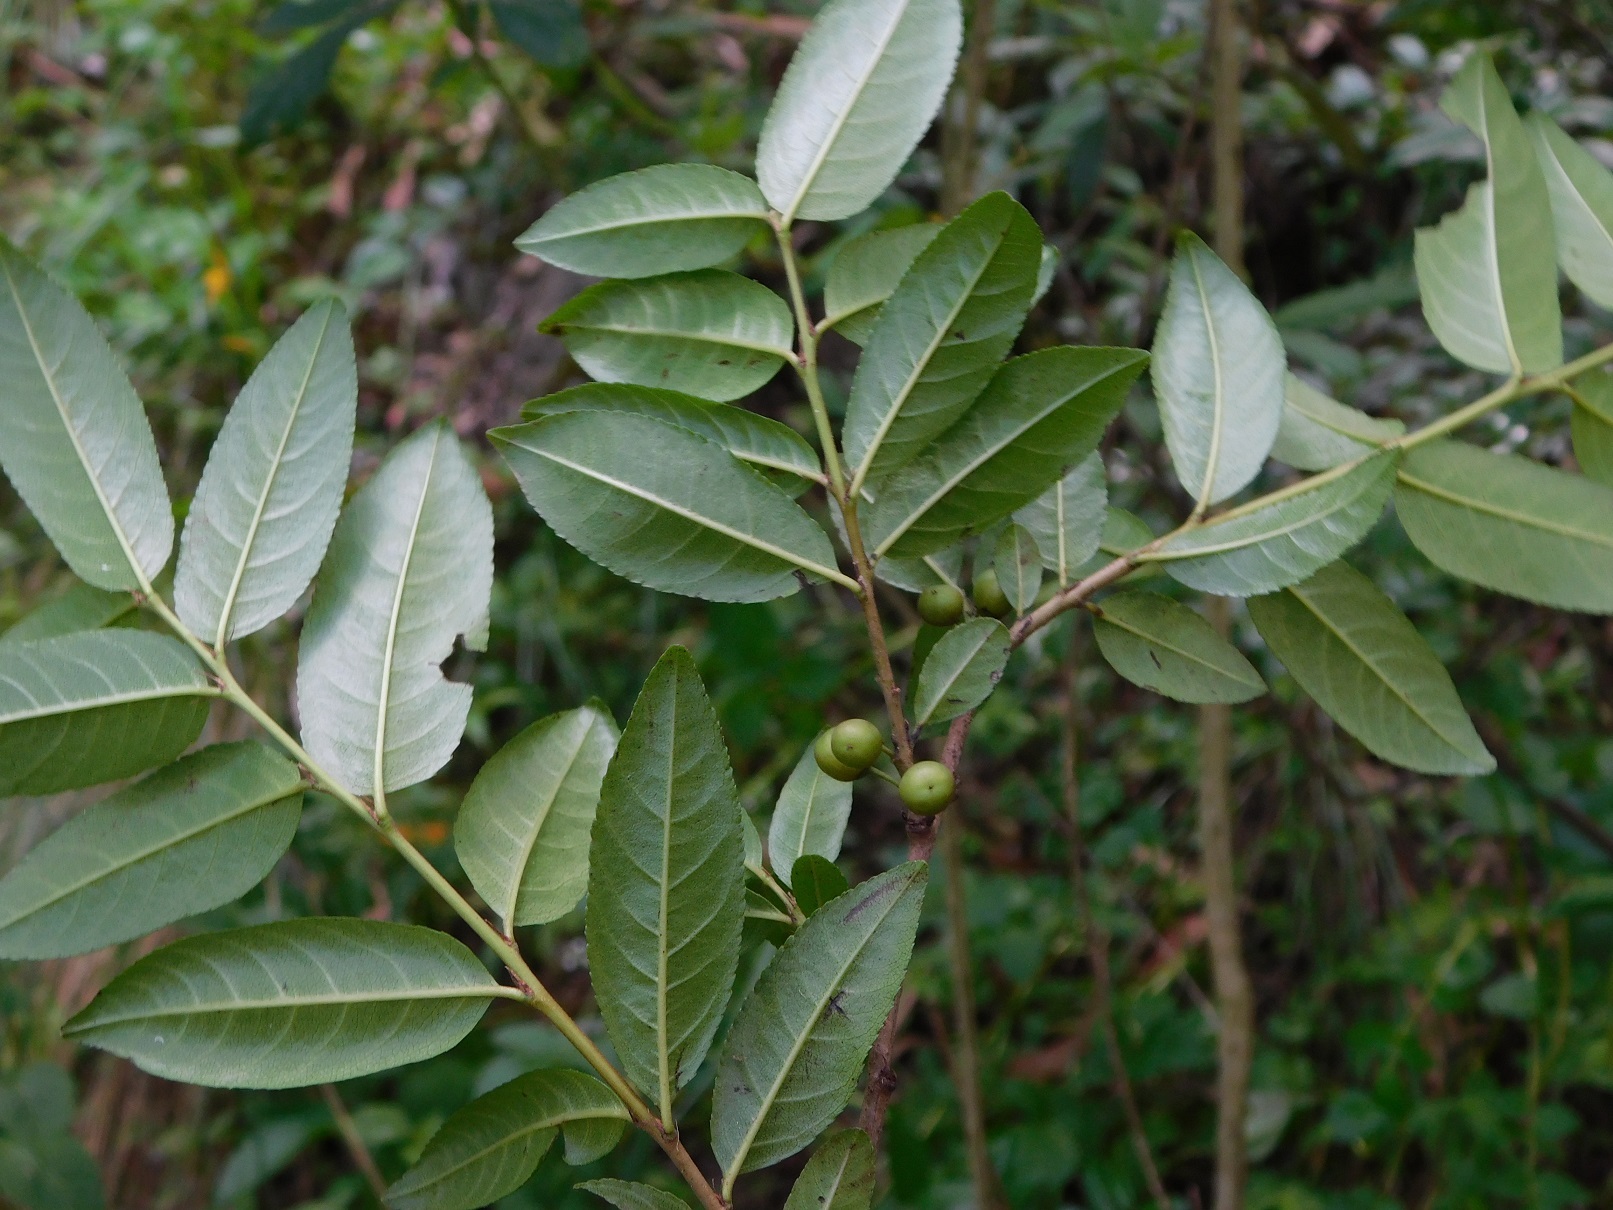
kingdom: Plantae
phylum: Tracheophyta
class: Magnoliopsida
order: Rosales
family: Rhamnaceae
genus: Frangula
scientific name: Frangula mcvaughii
